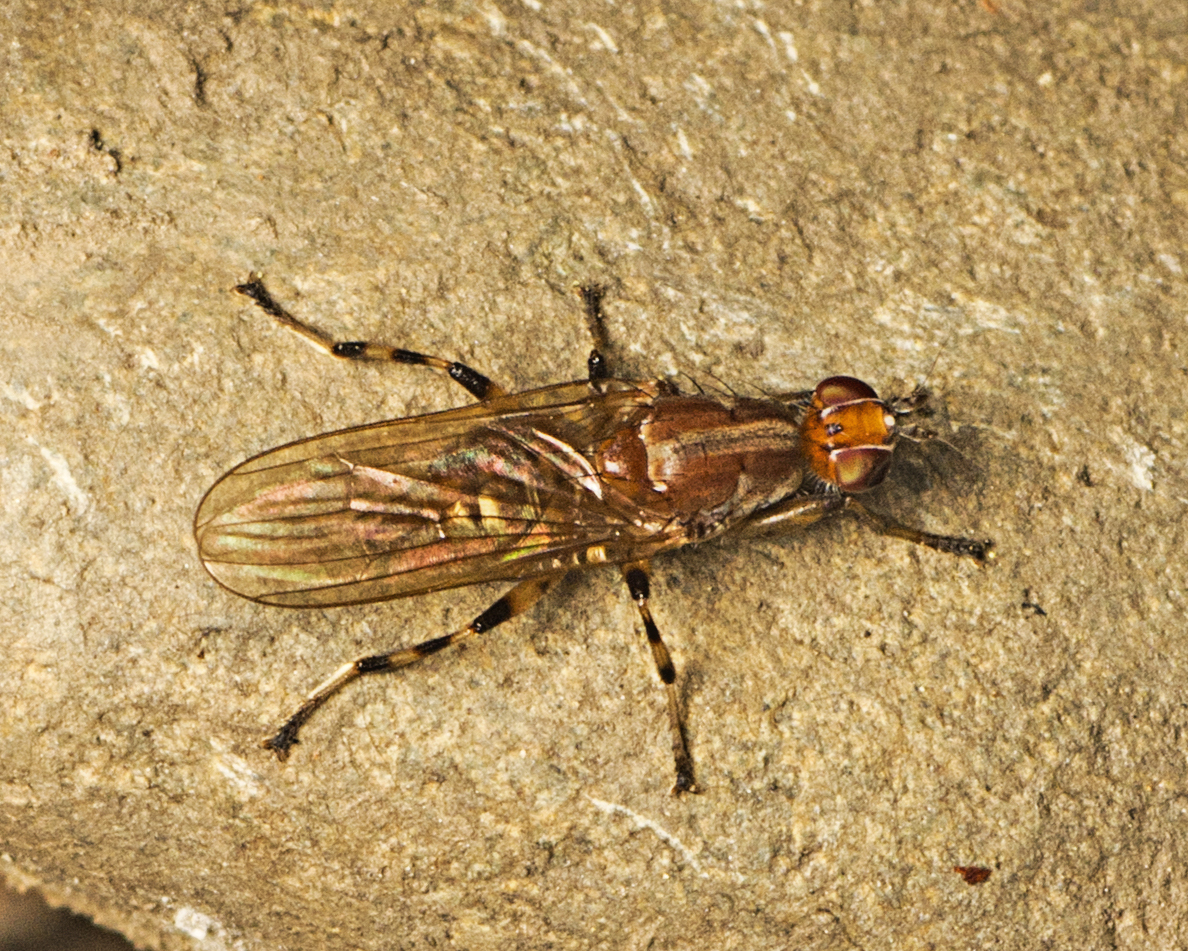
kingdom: Animalia
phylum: Arthropoda
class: Insecta
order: Diptera
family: Heleomyzidae
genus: Tapeigaster
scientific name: Tapeigaster annulipes
